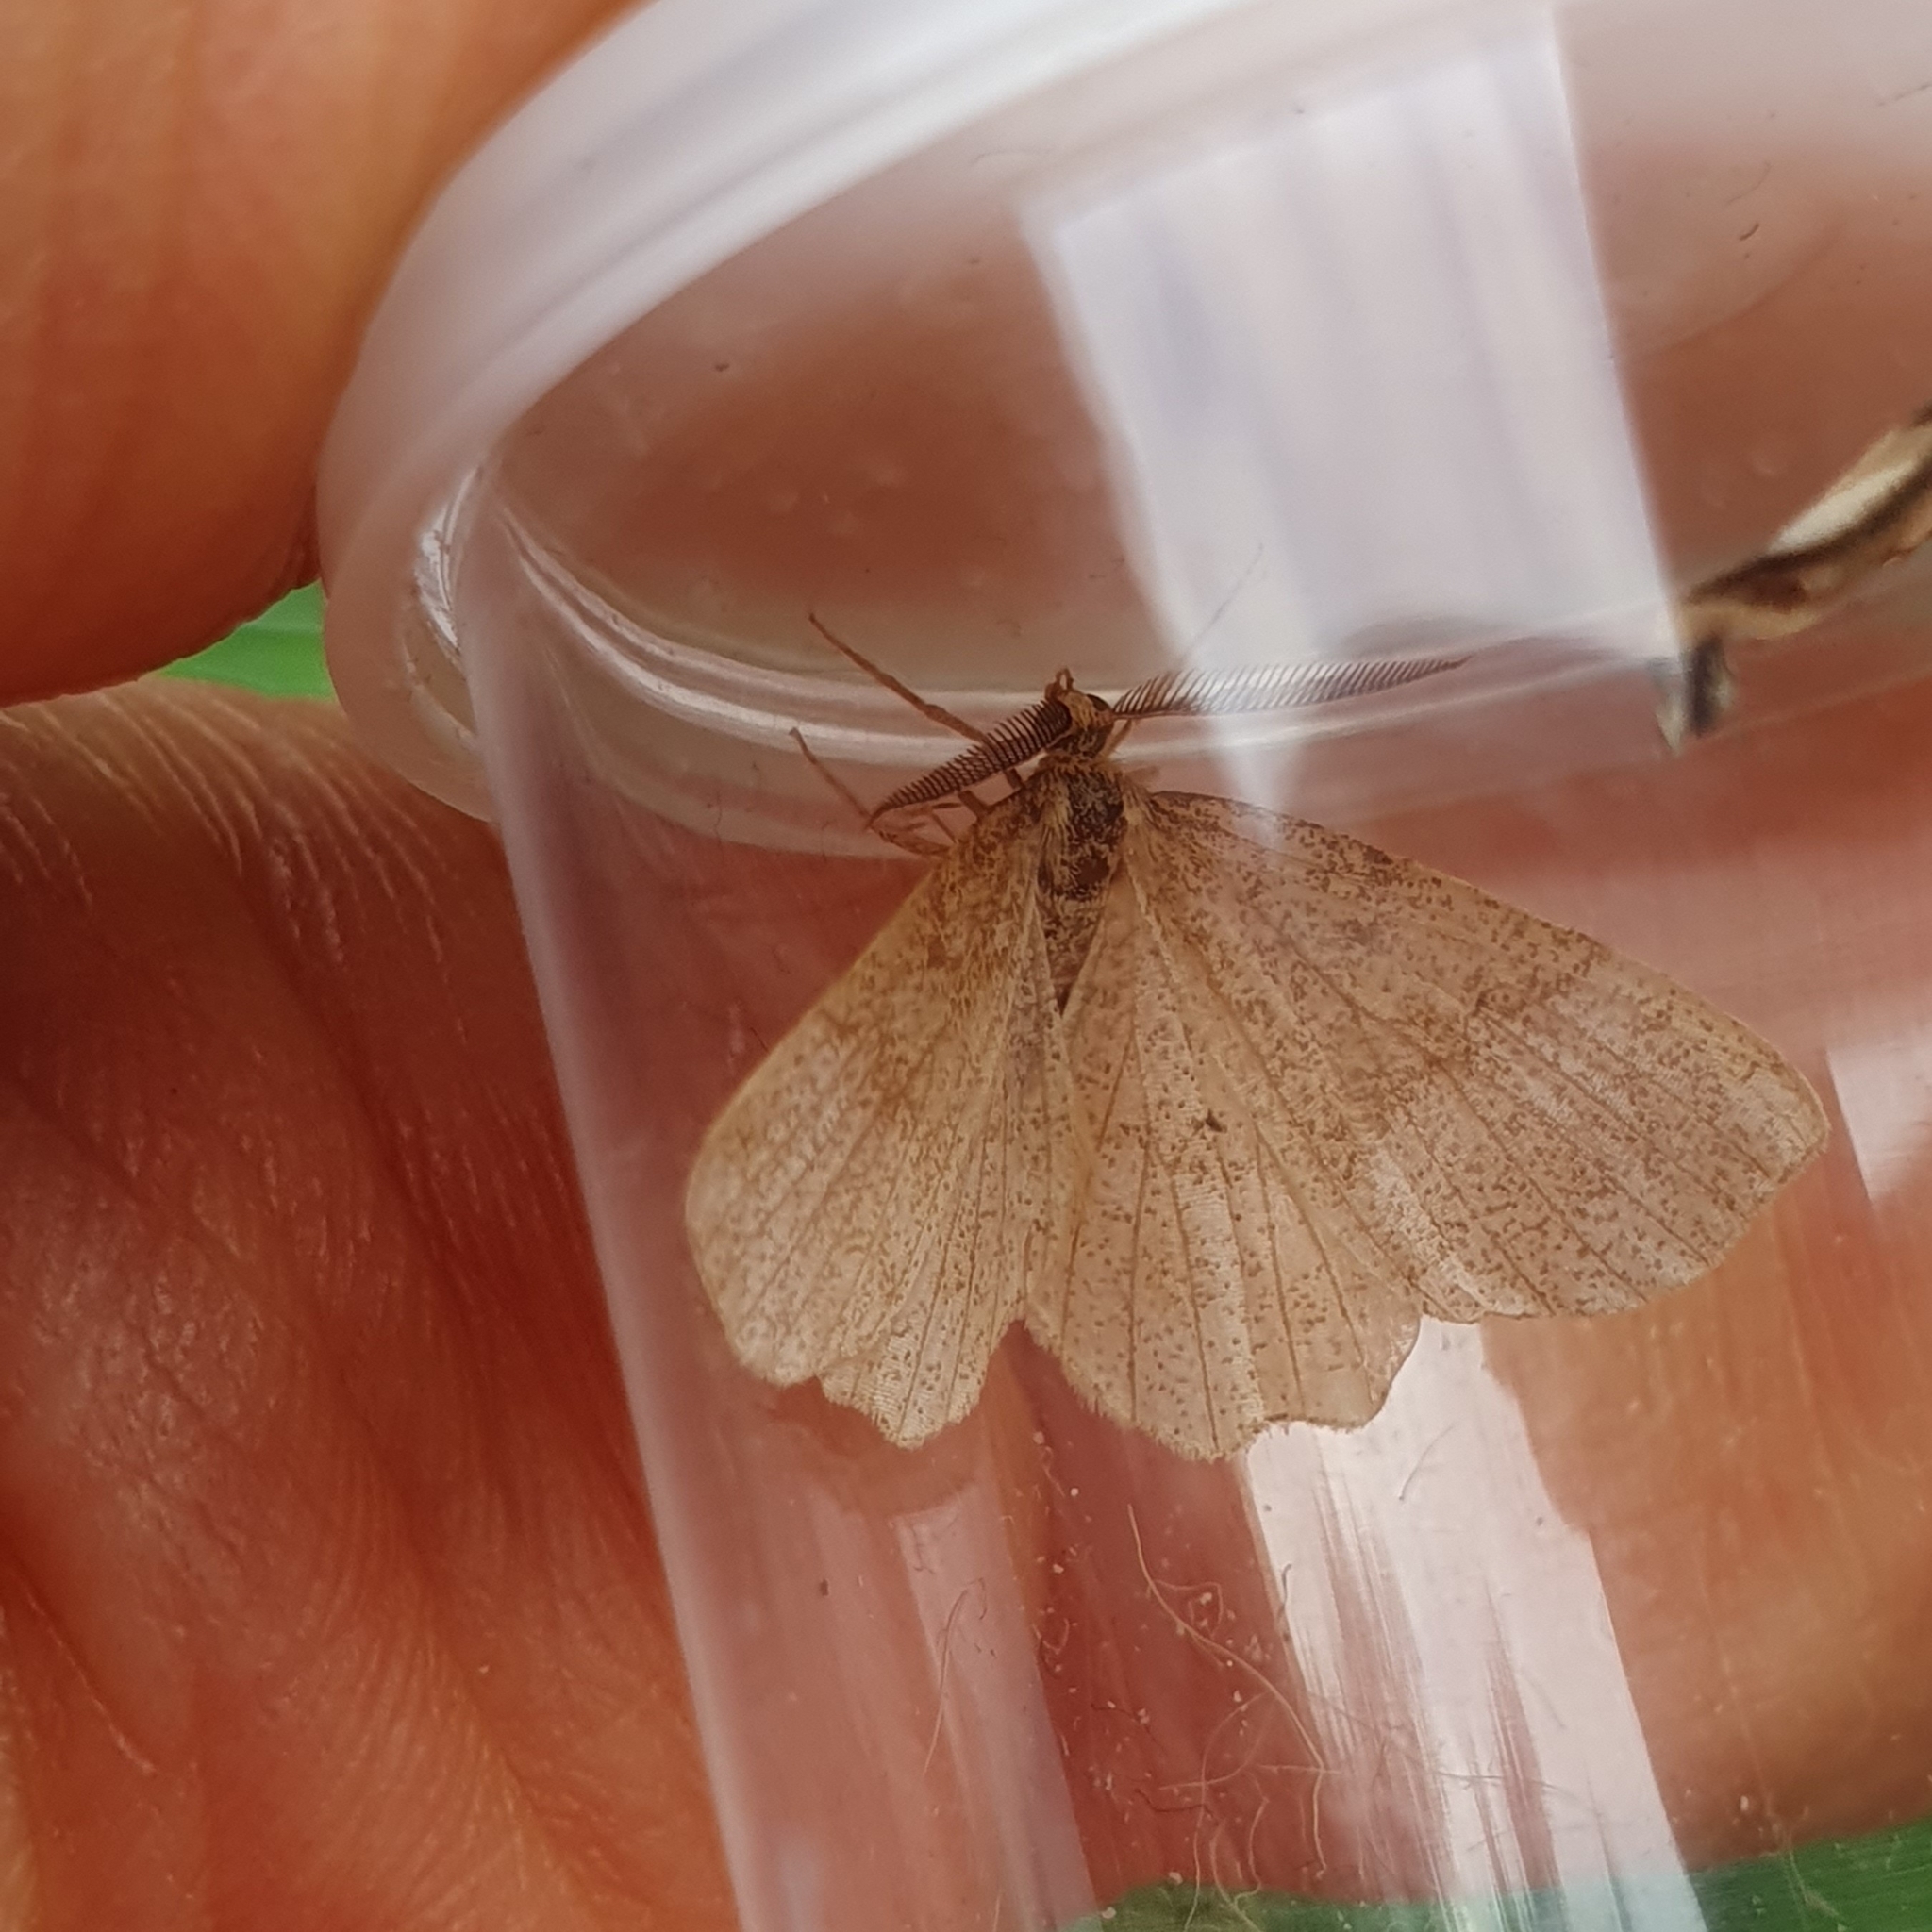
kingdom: Animalia
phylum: Arthropoda
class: Insecta
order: Lepidoptera
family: Geometridae
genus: Cepphis
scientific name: Cepphis advenaria
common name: Little thorn
